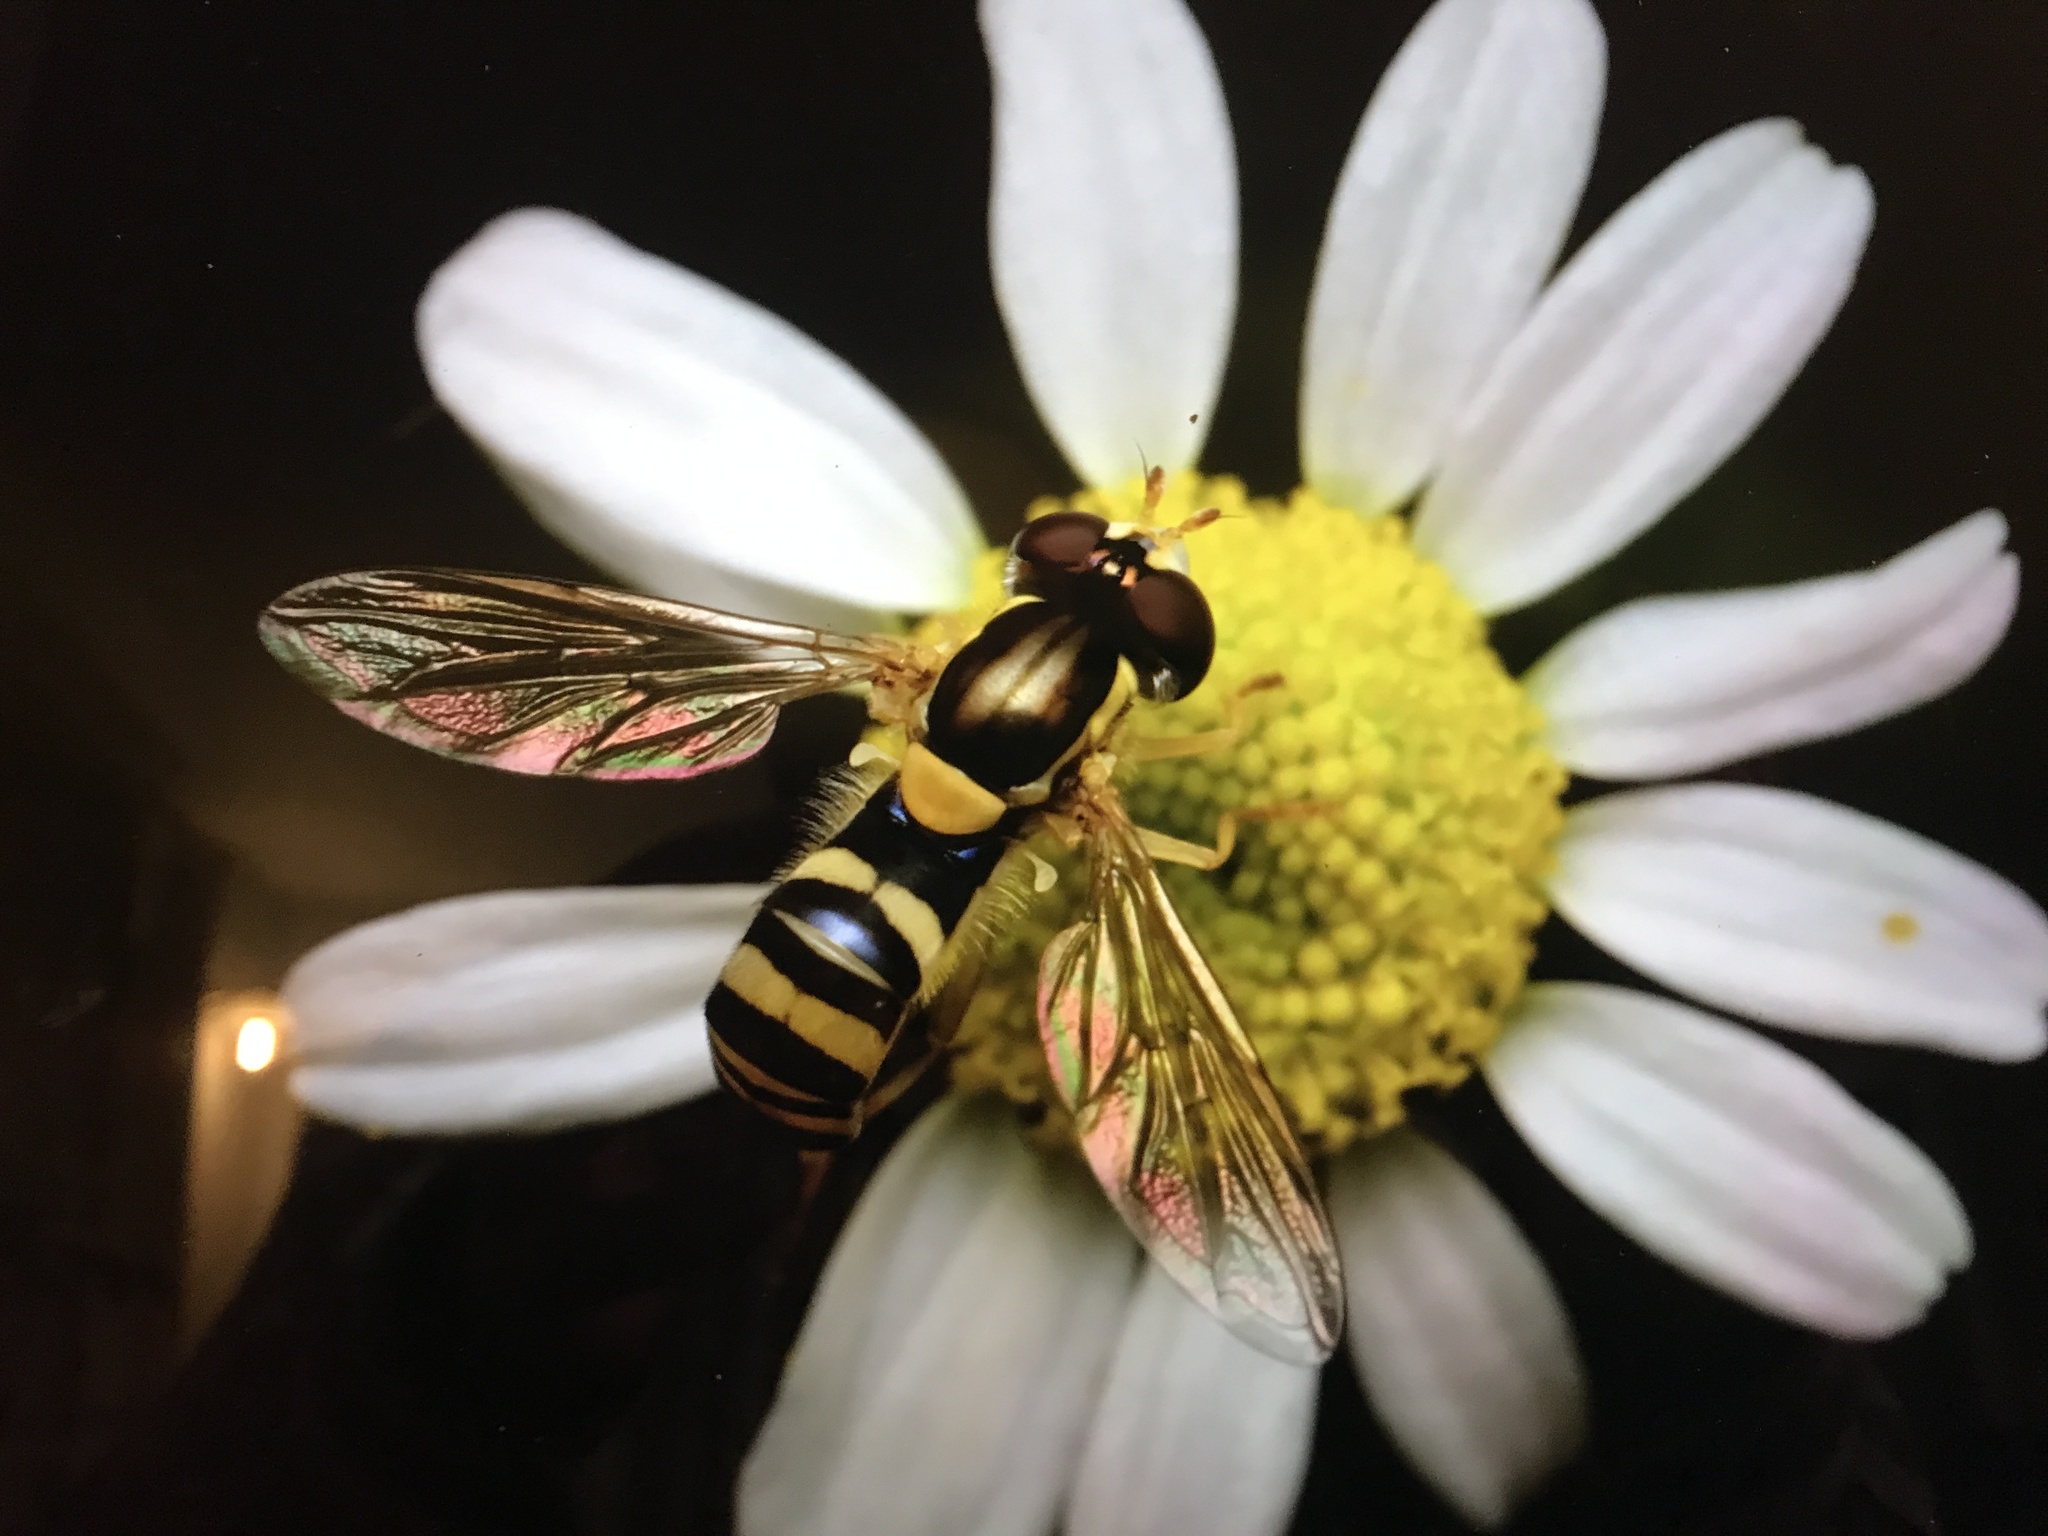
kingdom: Animalia
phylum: Arthropoda
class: Insecta
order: Diptera
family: Syrphidae
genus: Sphaerophoria
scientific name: Sphaerophoria
